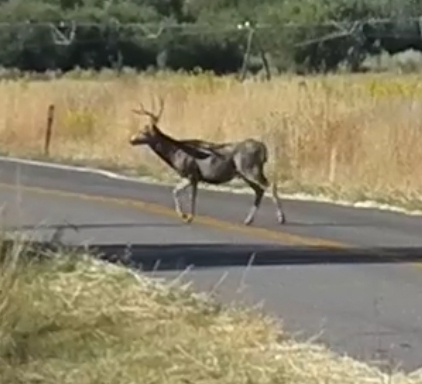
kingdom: Animalia
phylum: Chordata
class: Mammalia
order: Artiodactyla
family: Cervidae
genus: Odocoileus
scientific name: Odocoileus hemionus
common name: Mule deer
